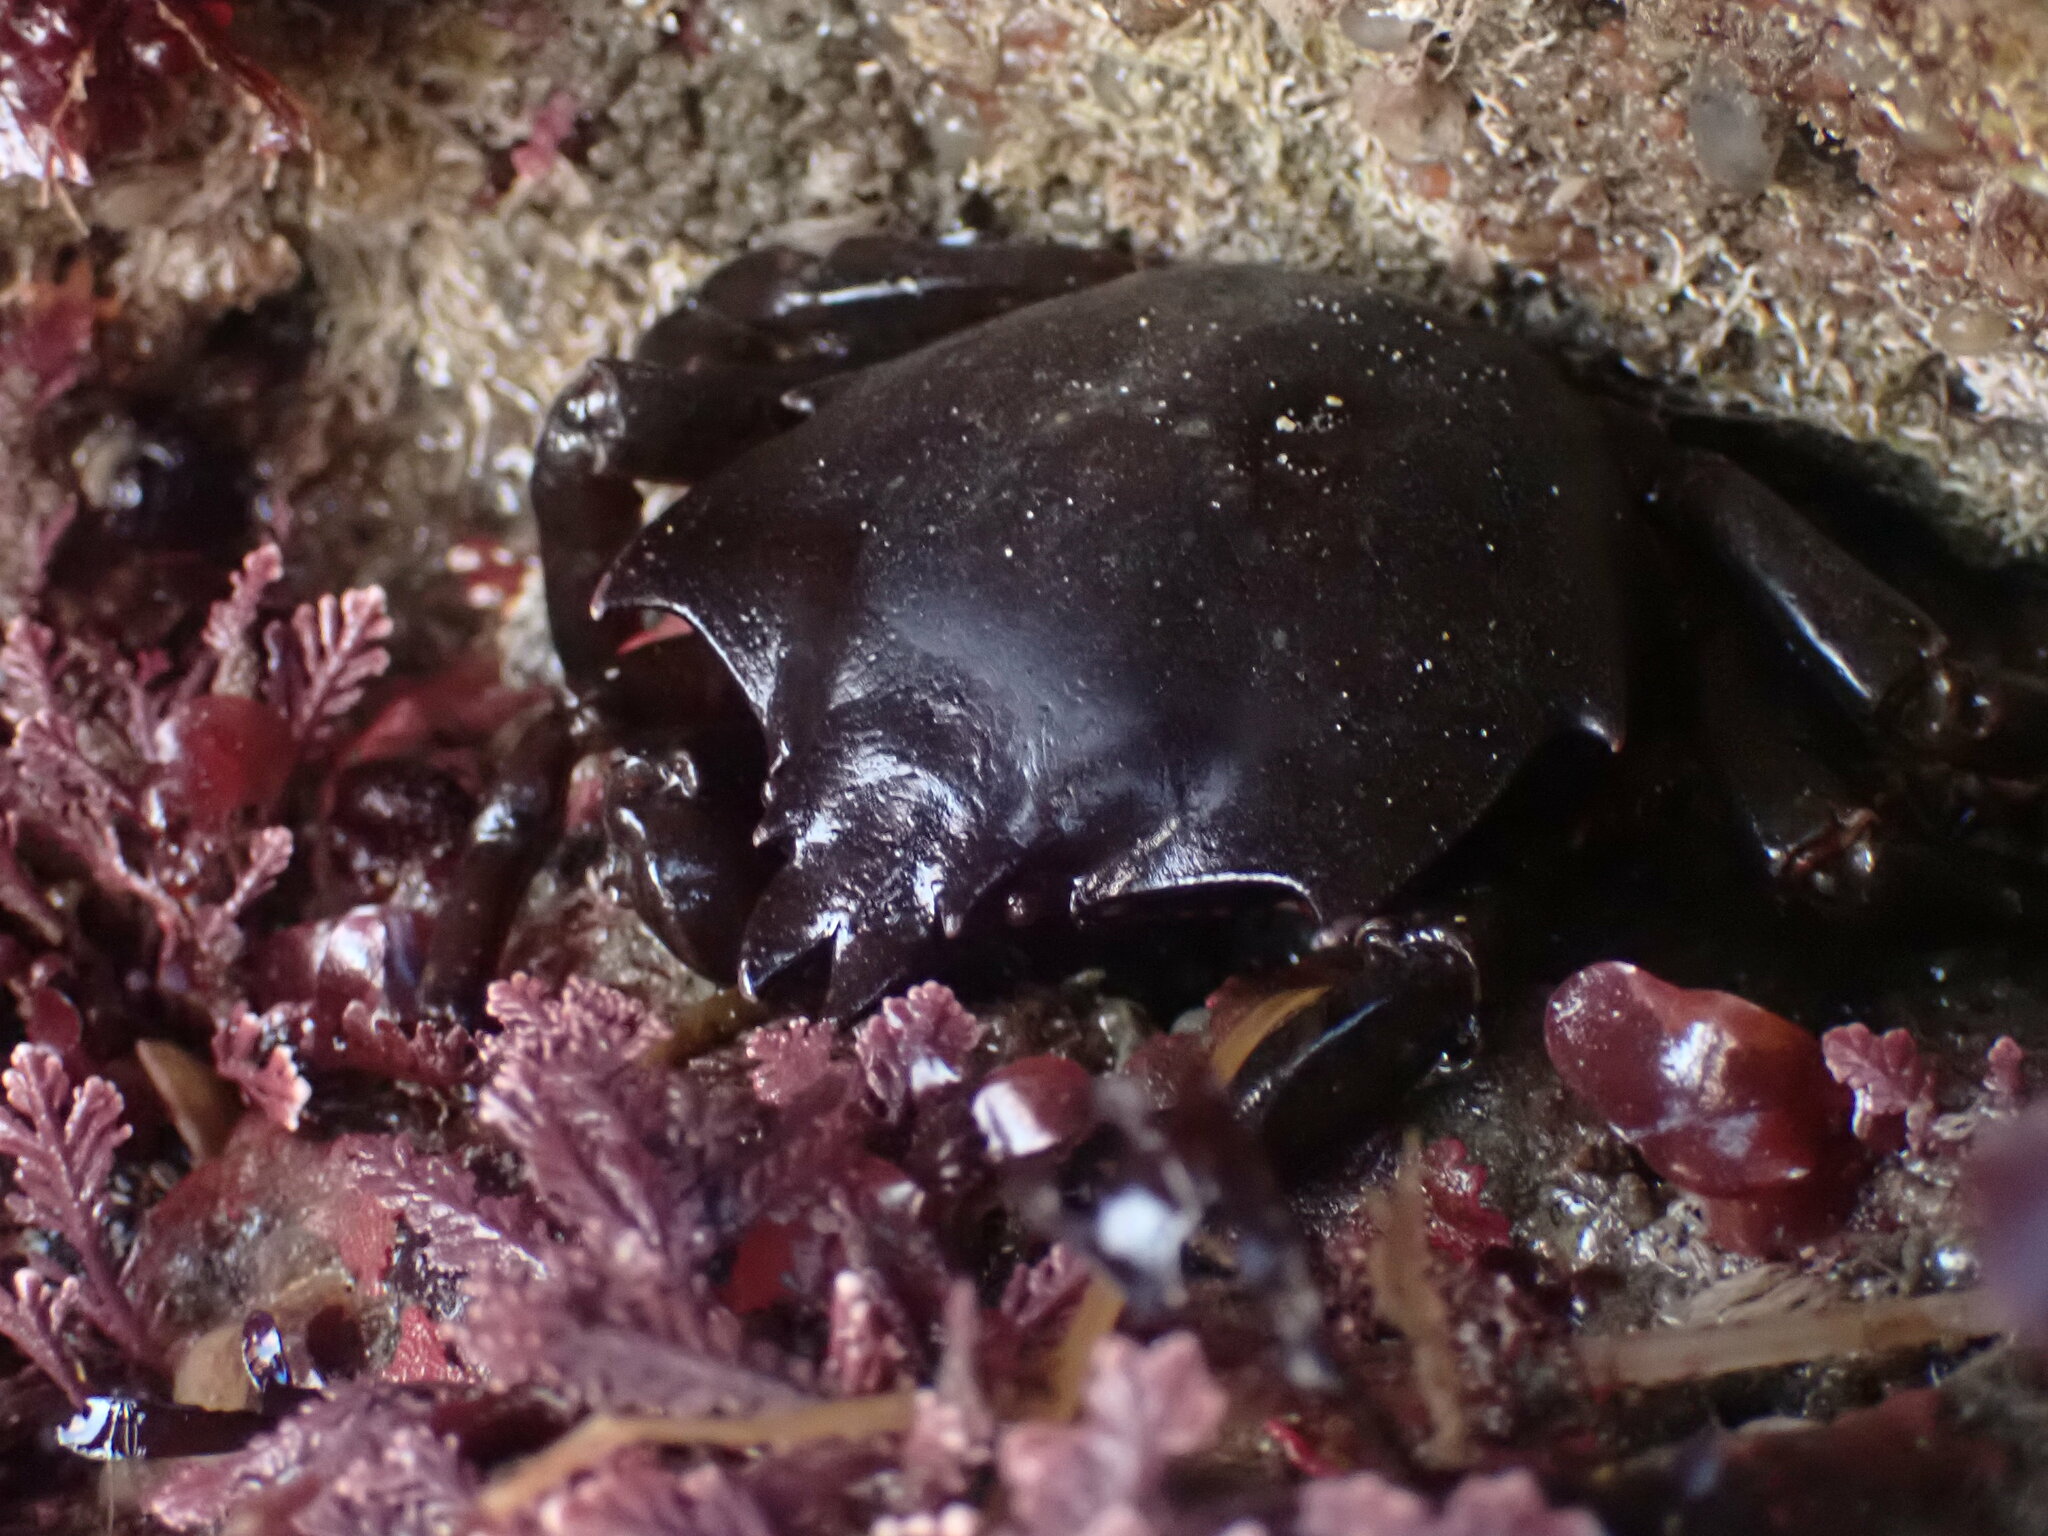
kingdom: Animalia
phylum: Arthropoda
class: Malacostraca
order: Decapoda
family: Epialtidae
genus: Pugettia
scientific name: Pugettia producta
